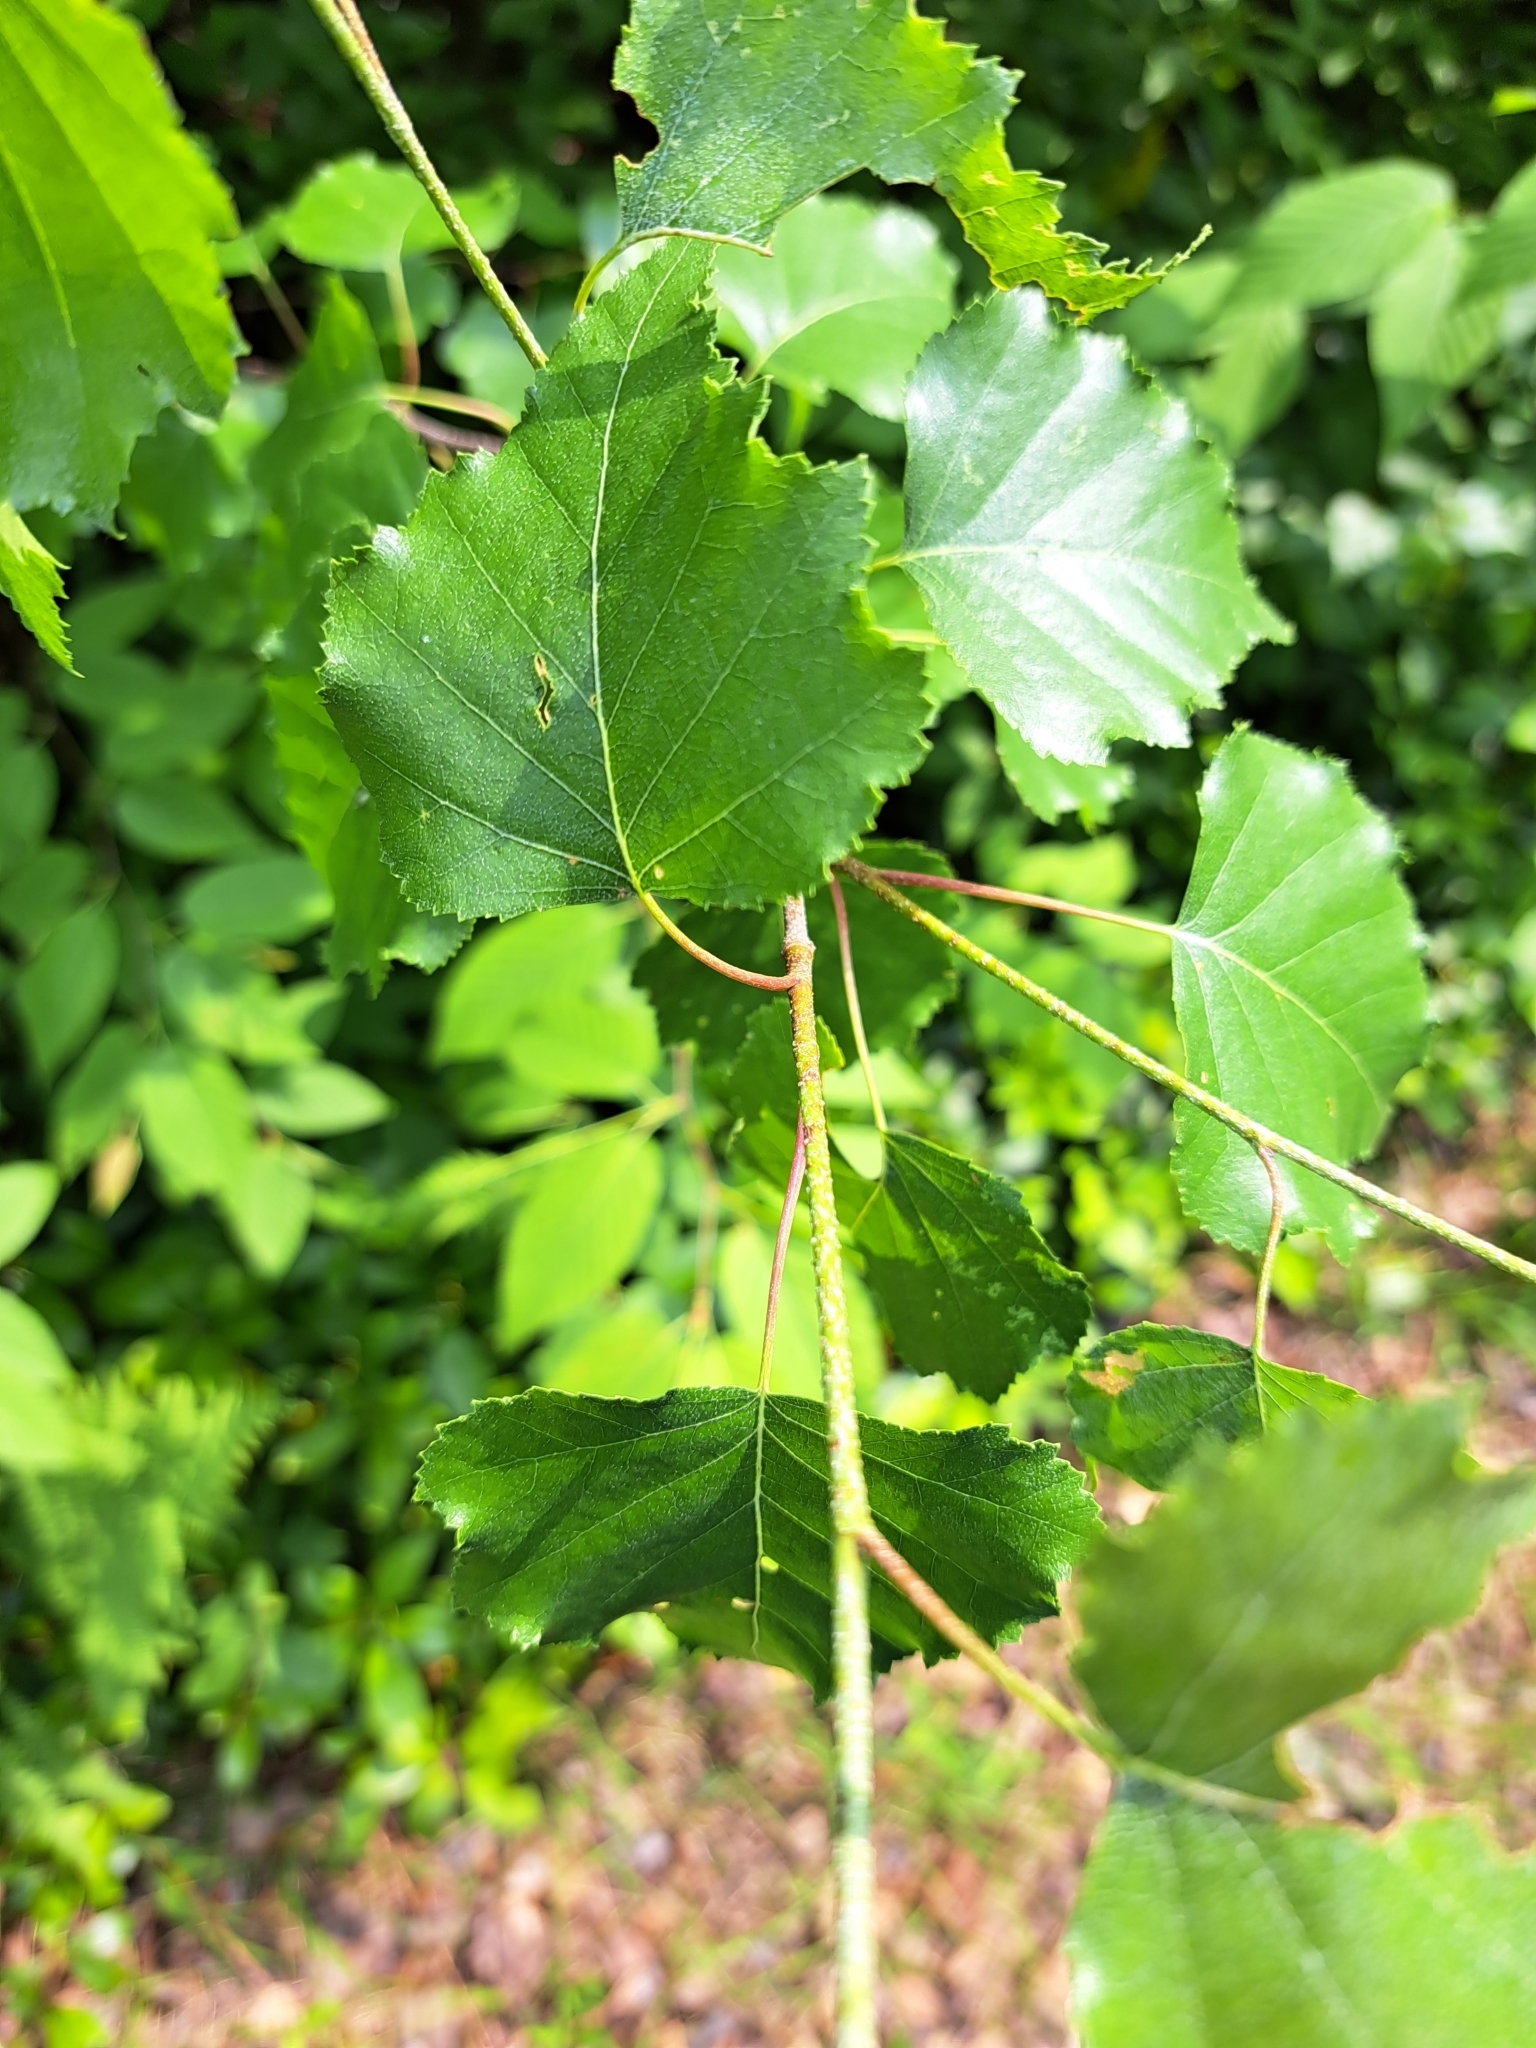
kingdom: Plantae
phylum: Tracheophyta
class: Magnoliopsida
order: Fagales
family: Betulaceae
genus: Betula
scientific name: Betula populifolia
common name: Fire birch
